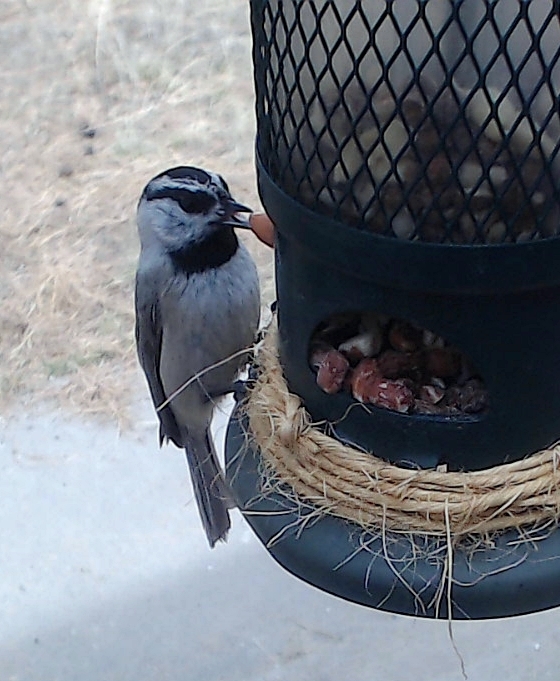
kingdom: Animalia
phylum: Chordata
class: Aves
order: Passeriformes
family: Paridae
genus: Poecile
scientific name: Poecile gambeli
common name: Mountain chickadee
